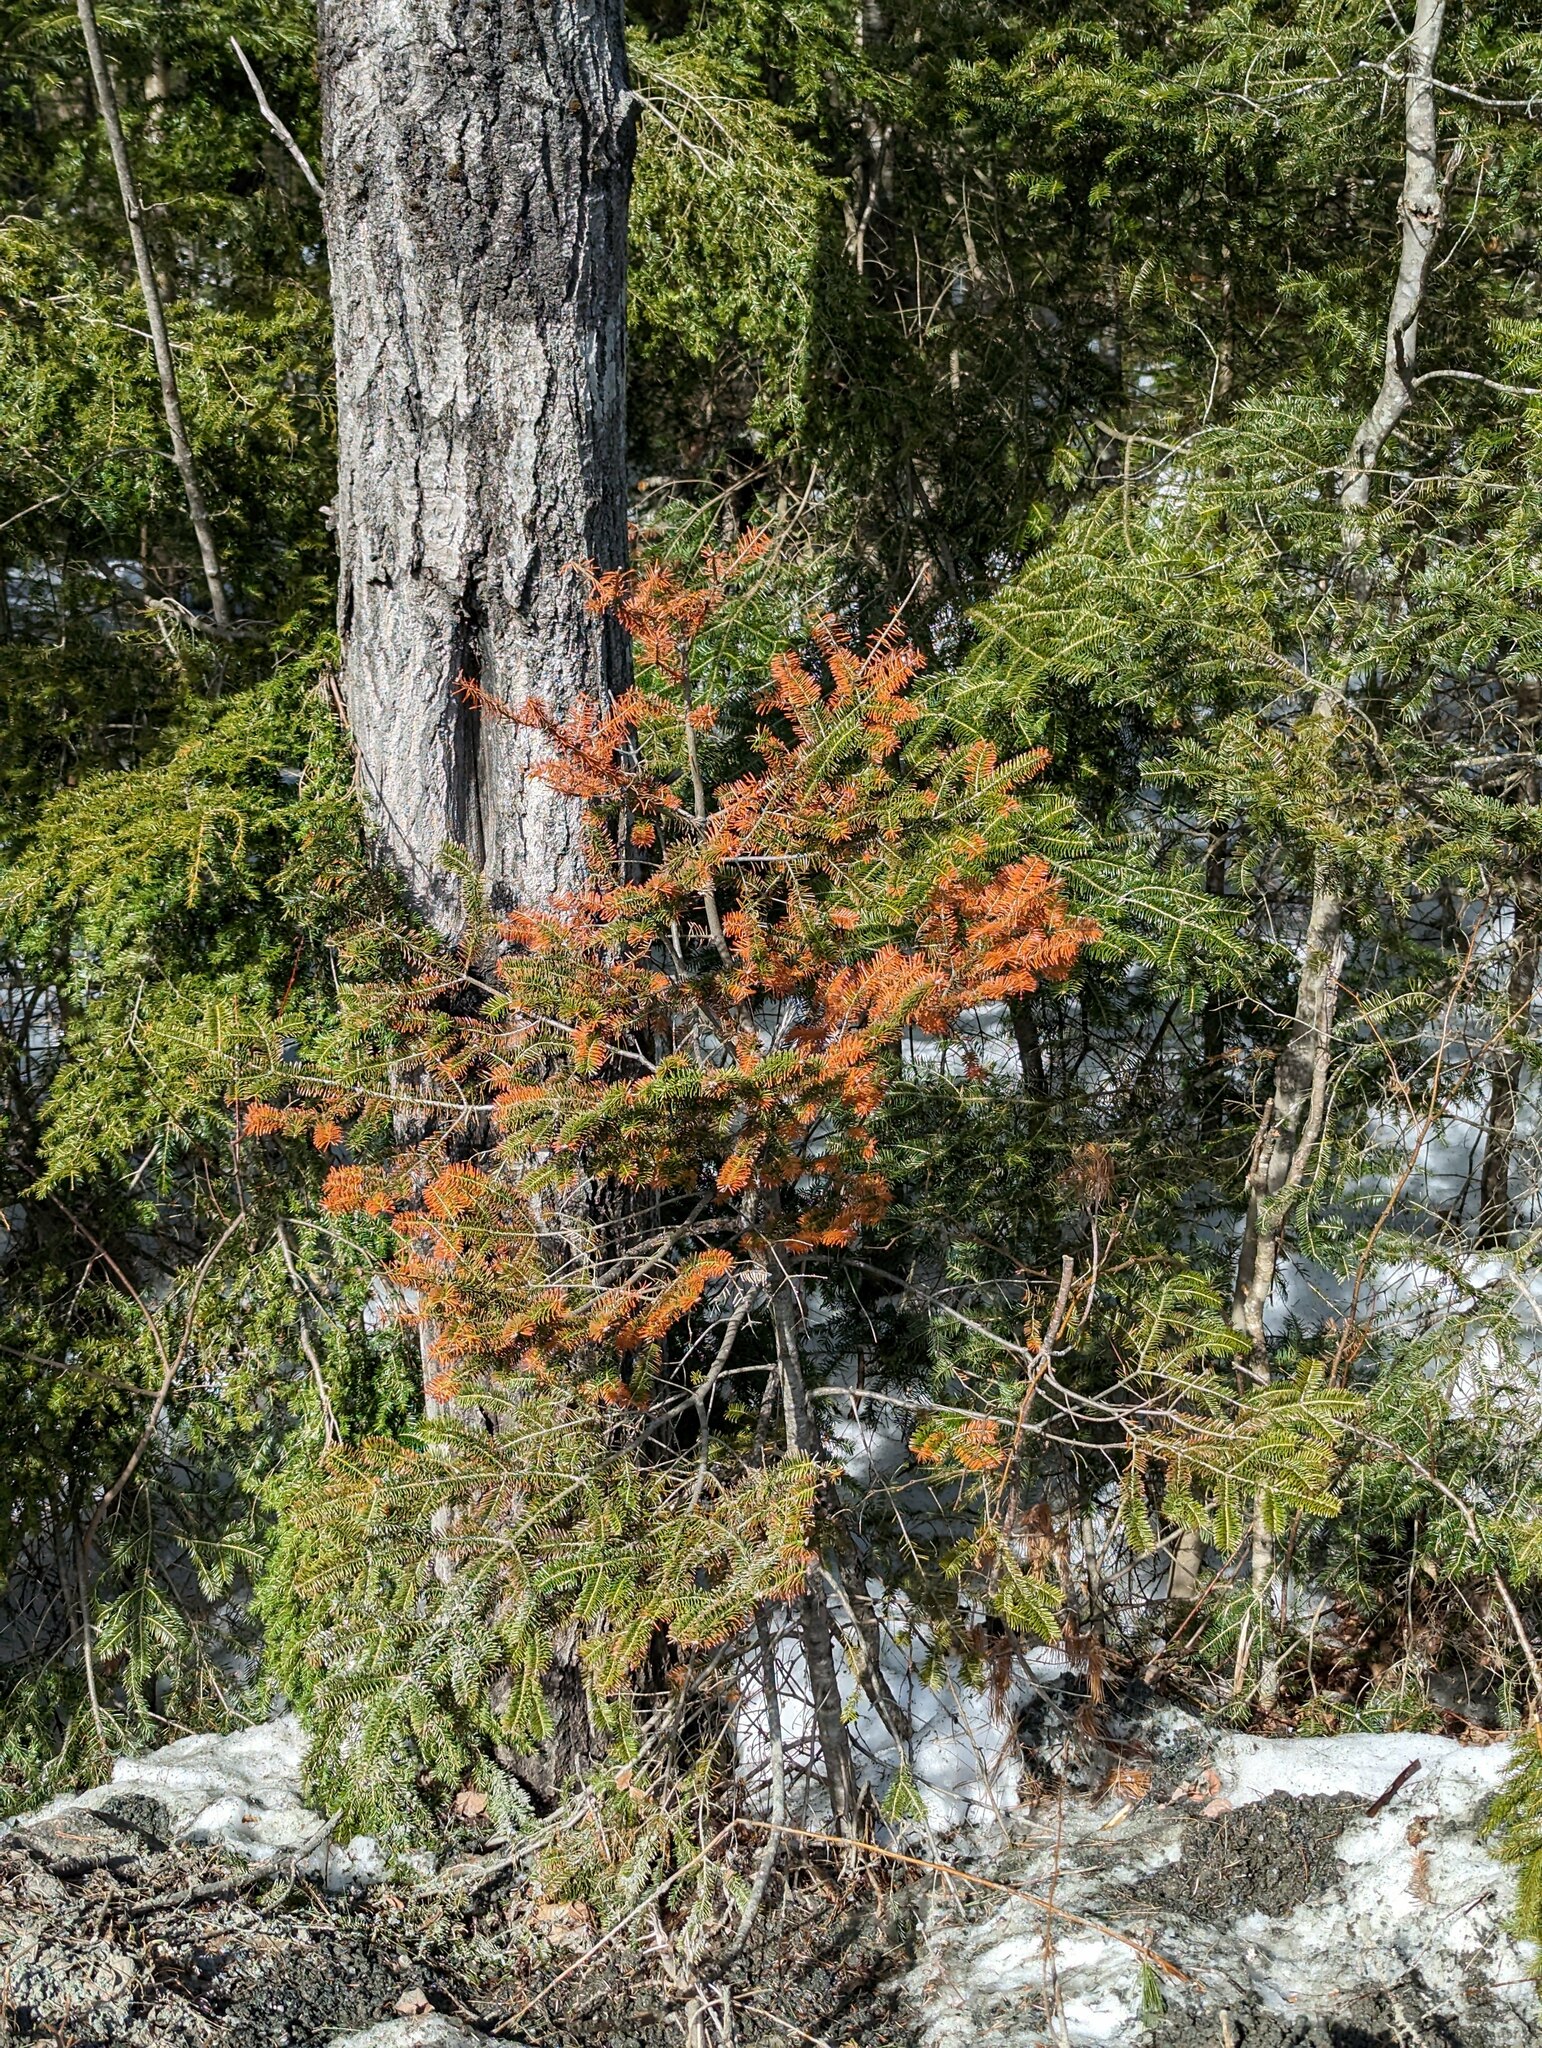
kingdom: Plantae
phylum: Tracheophyta
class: Pinopsida
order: Pinales
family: Pinaceae
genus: Abies
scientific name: Abies balsamea
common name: Balsam fir
